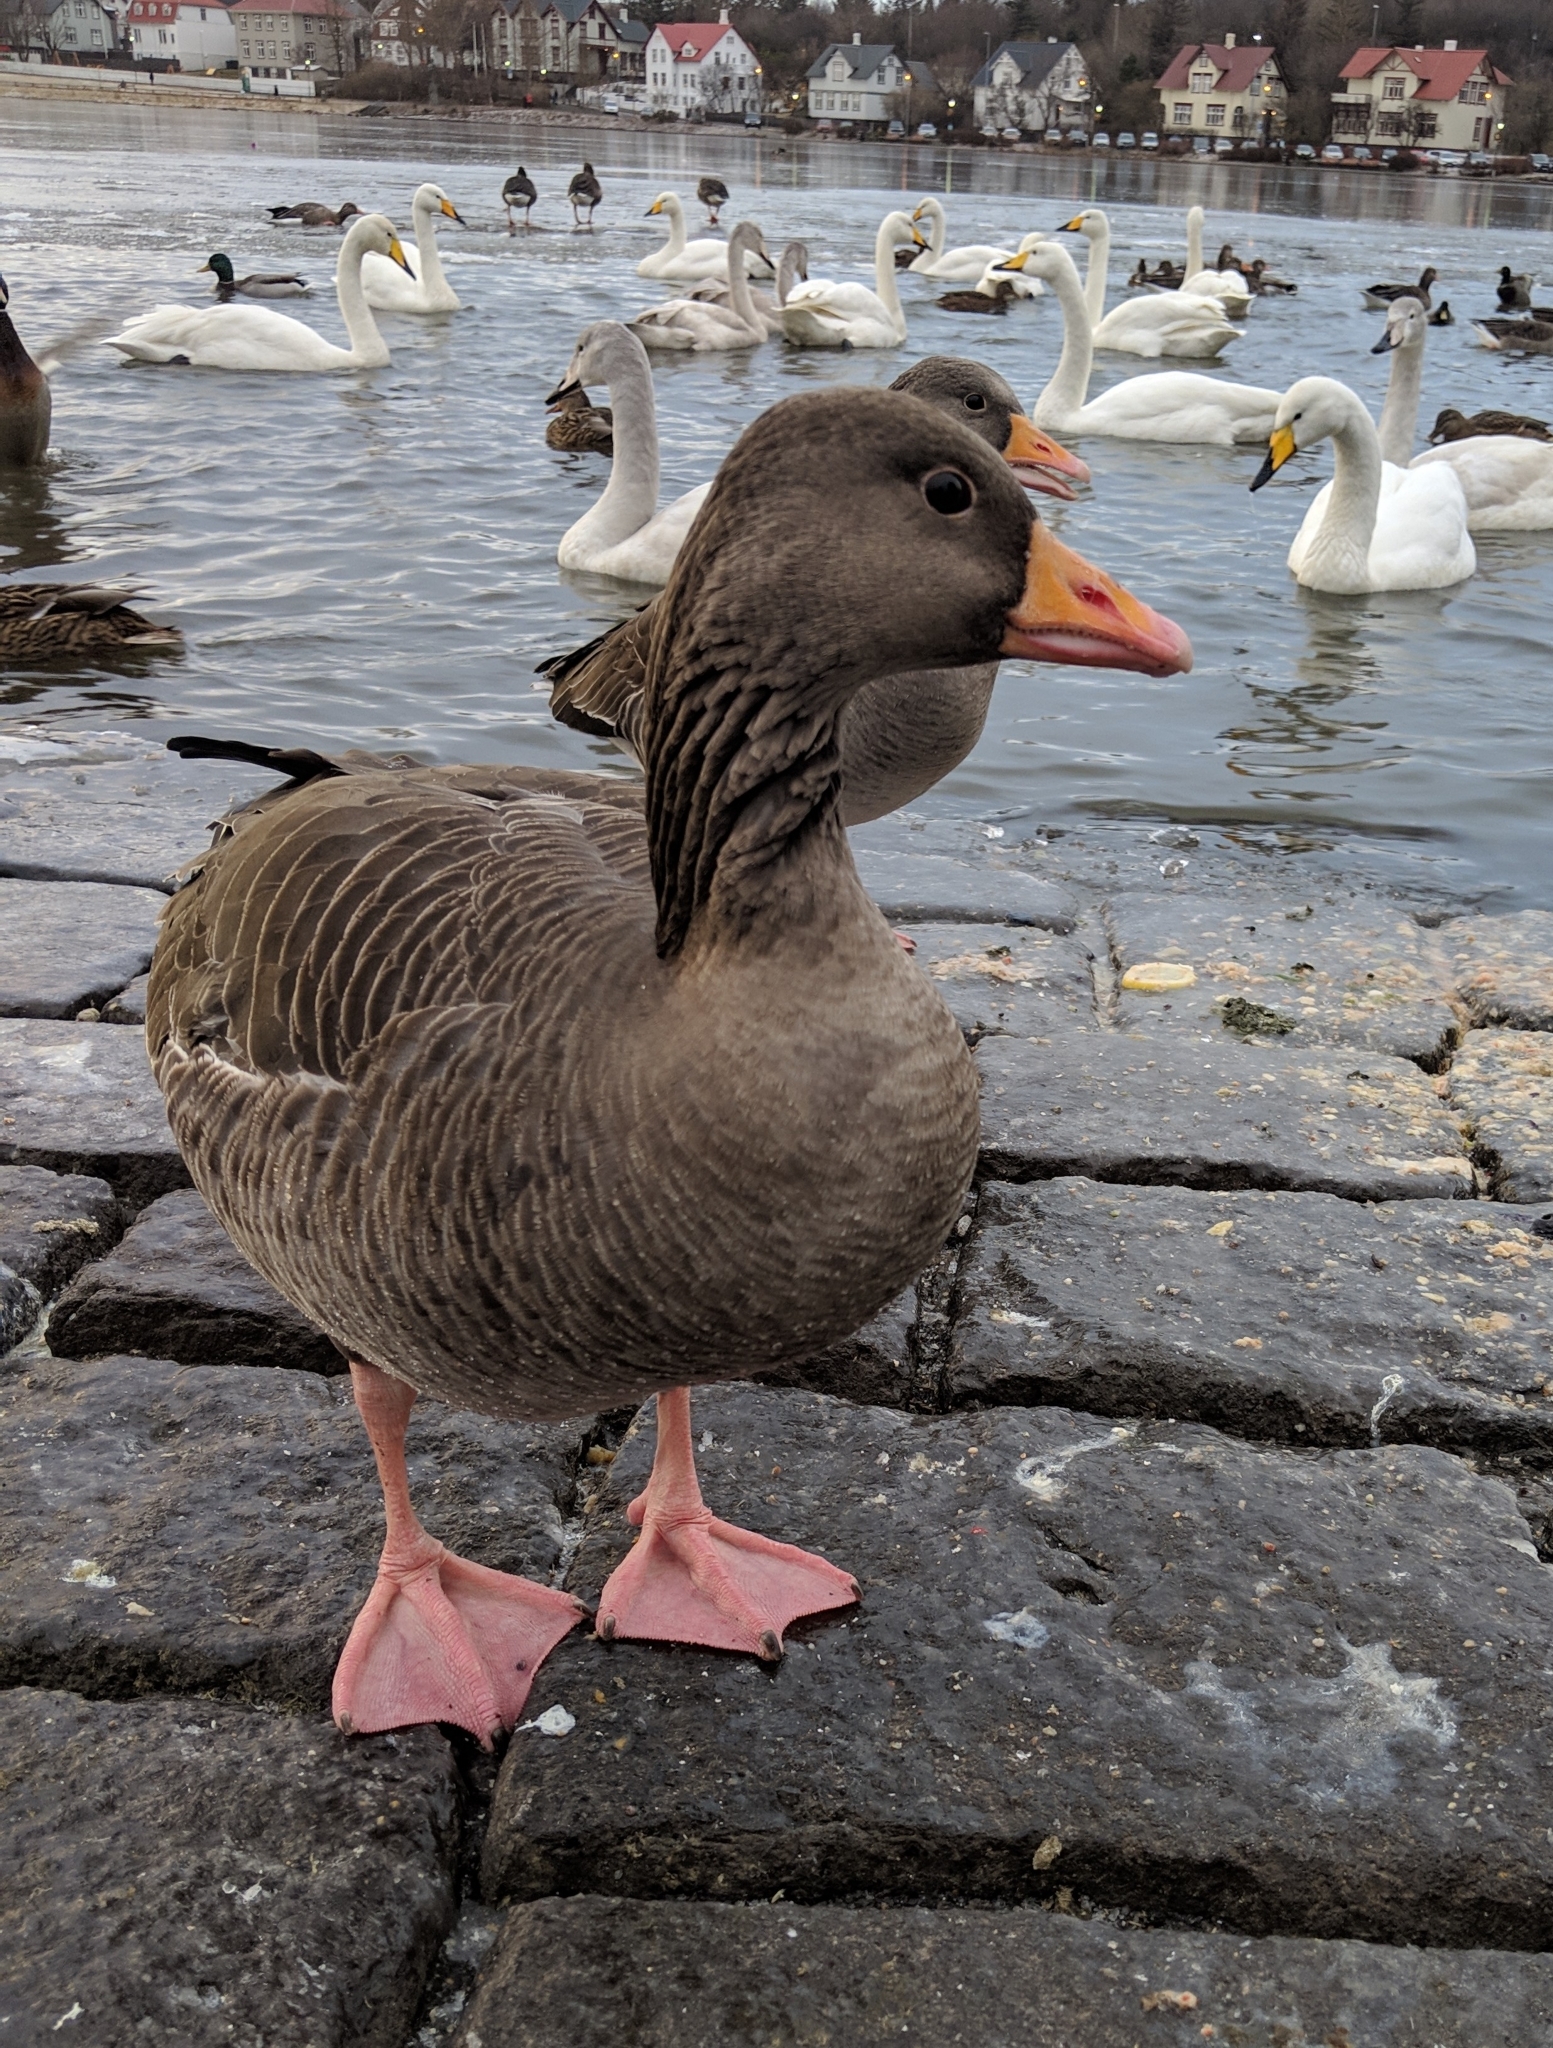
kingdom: Animalia
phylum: Chordata
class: Aves
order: Anseriformes
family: Anatidae
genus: Anser
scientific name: Anser anser
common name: Greylag goose
